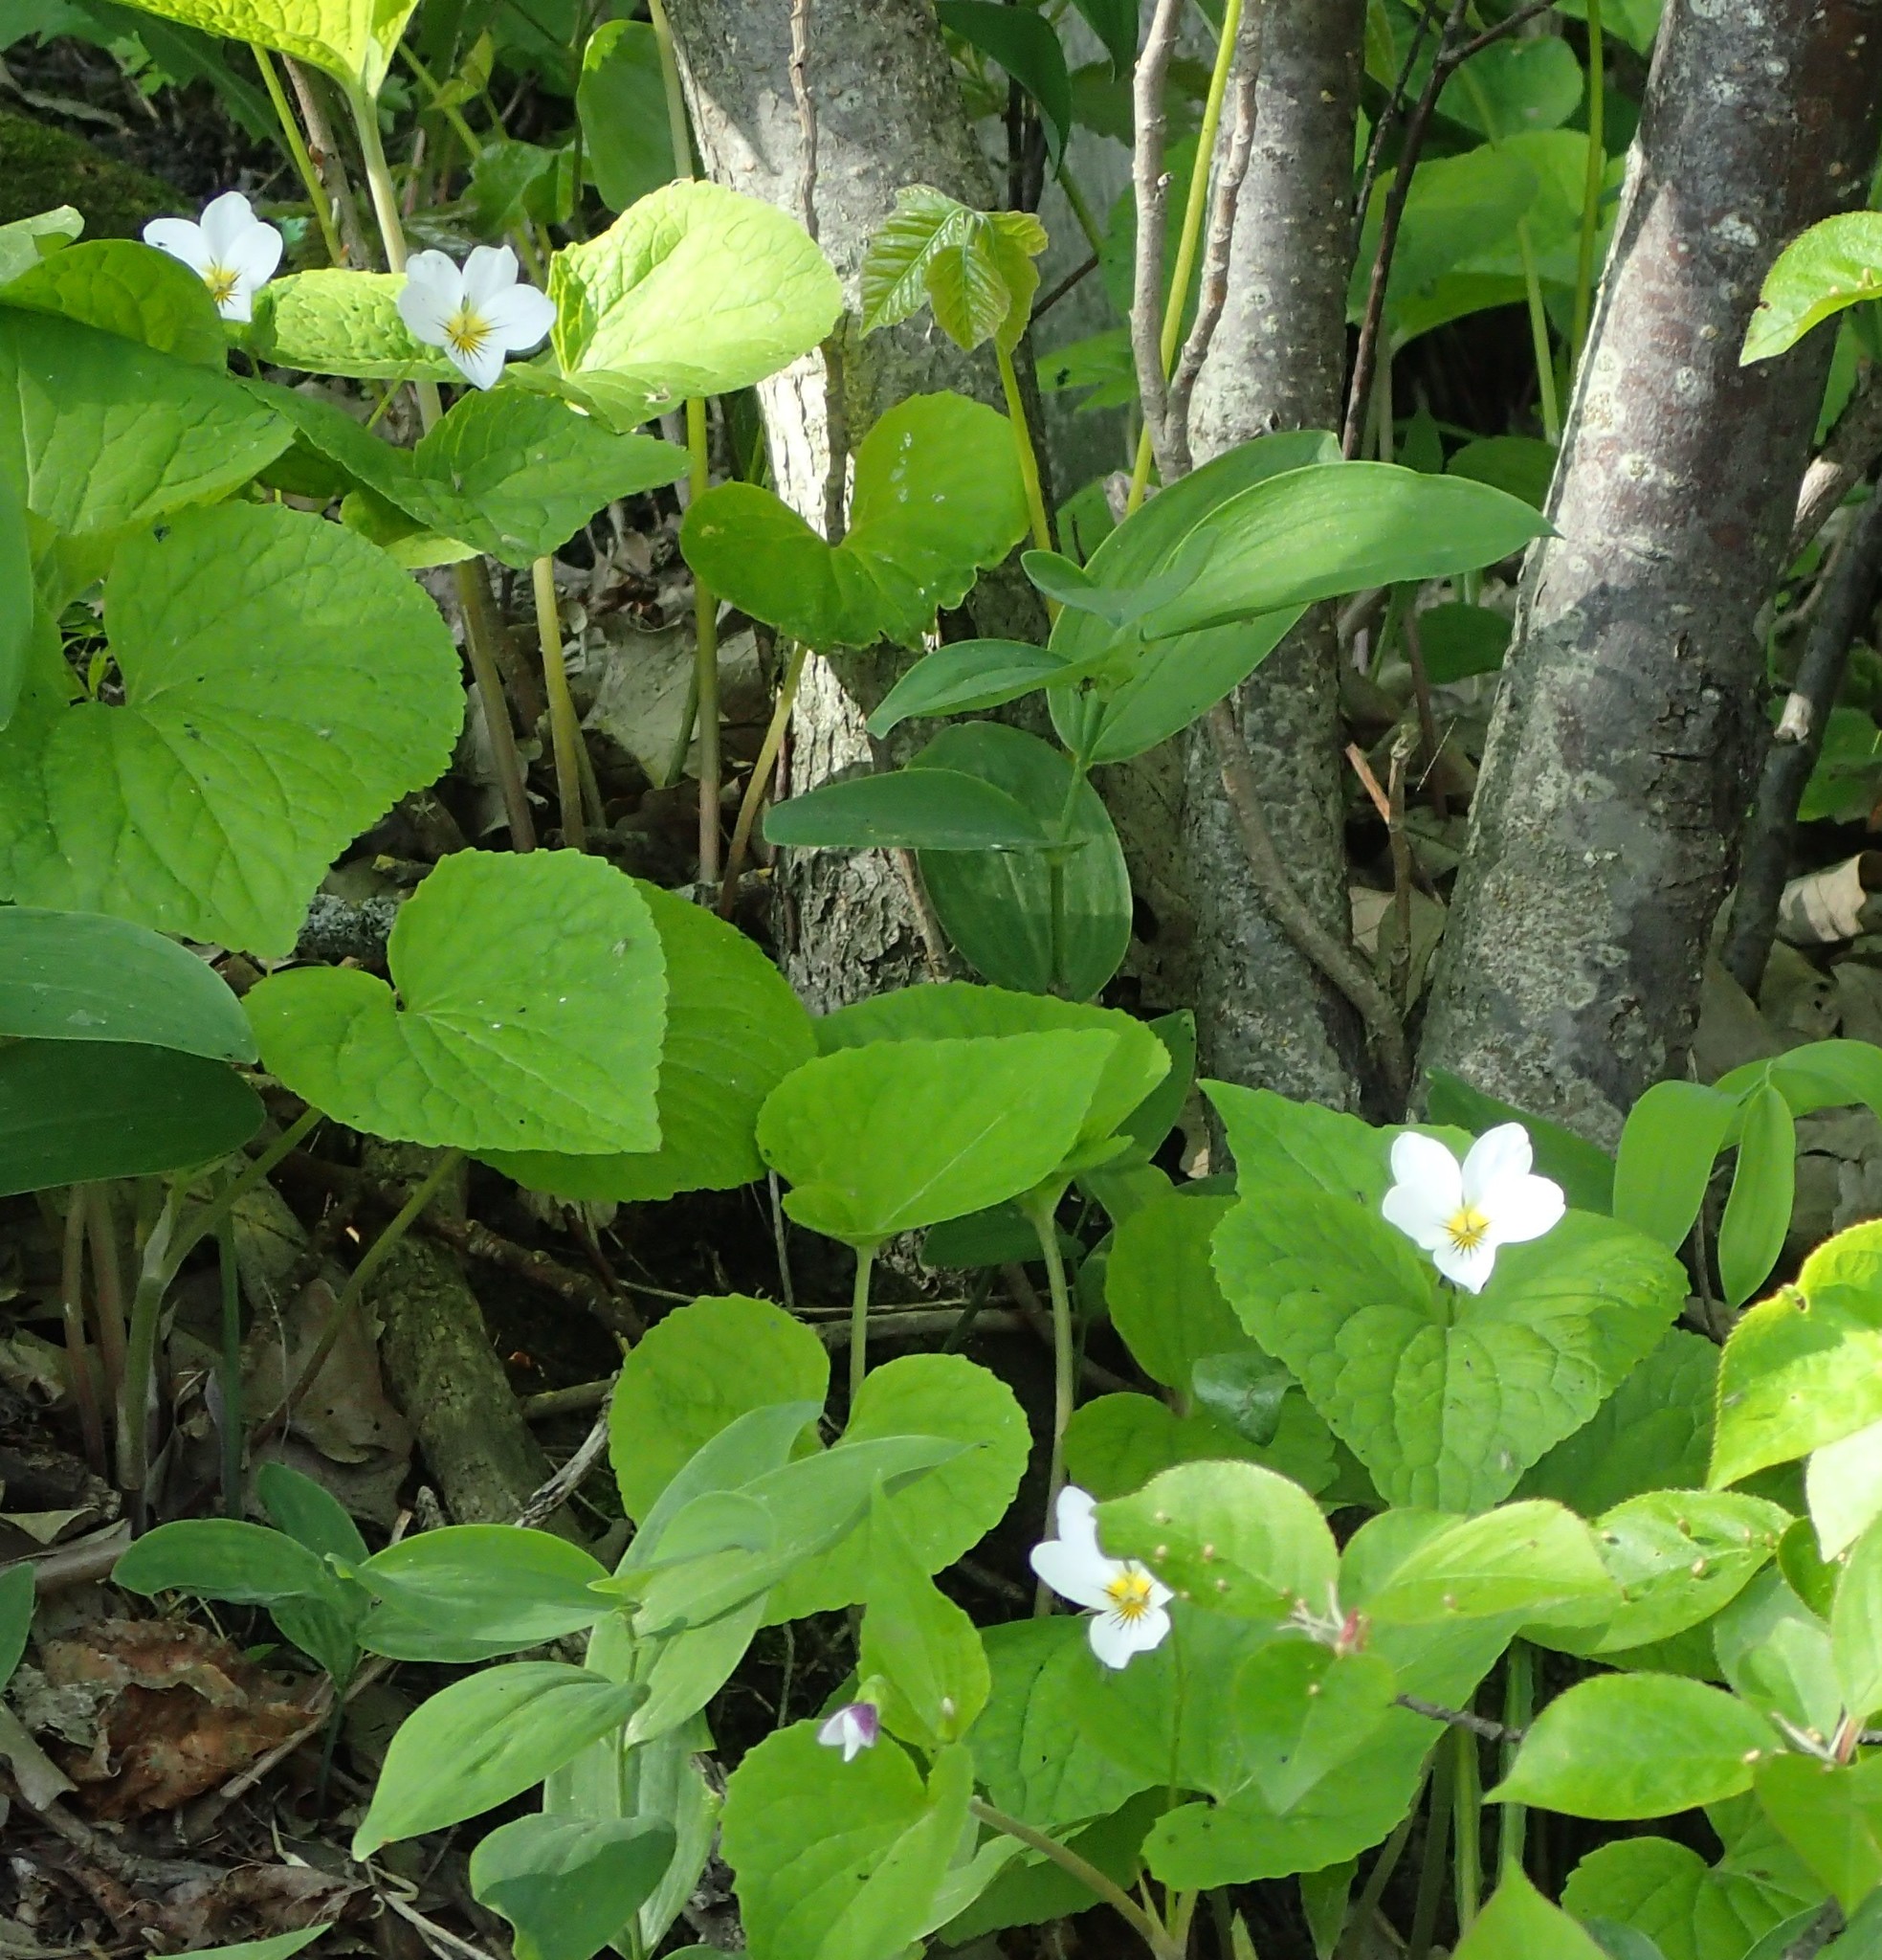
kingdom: Plantae
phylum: Tracheophyta
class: Magnoliopsida
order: Malpighiales
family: Violaceae
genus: Viola
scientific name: Viola canadensis
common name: Canada violet
